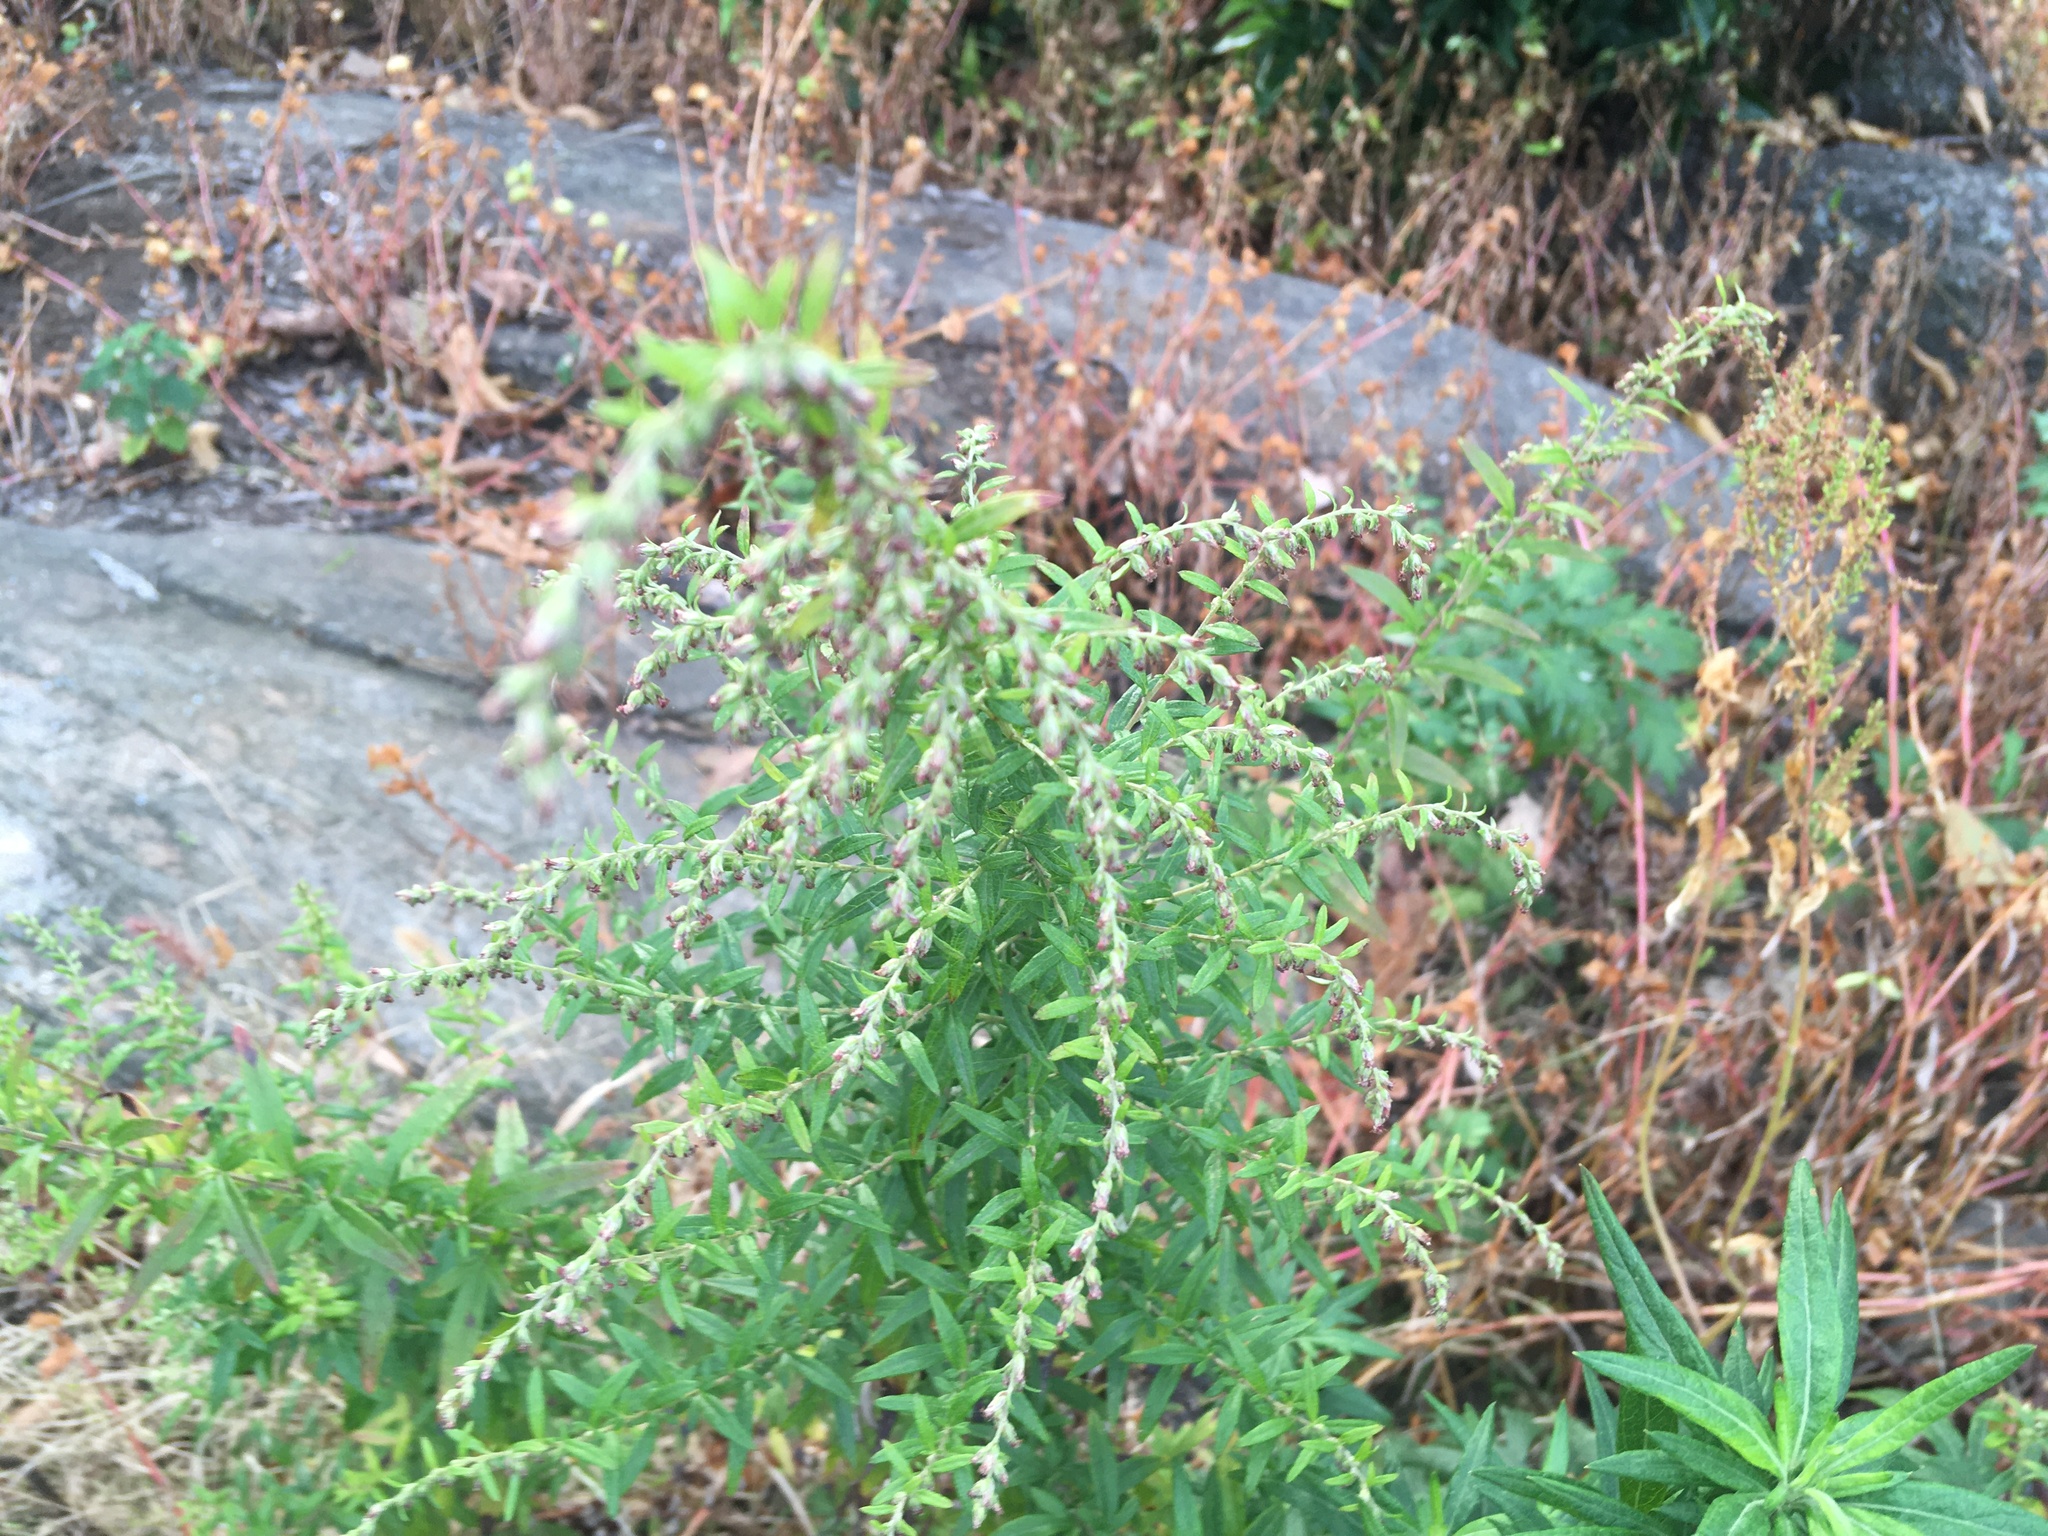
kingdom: Plantae
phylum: Tracheophyta
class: Magnoliopsida
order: Asterales
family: Asteraceae
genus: Artemisia
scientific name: Artemisia vulgaris
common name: Mugwort
